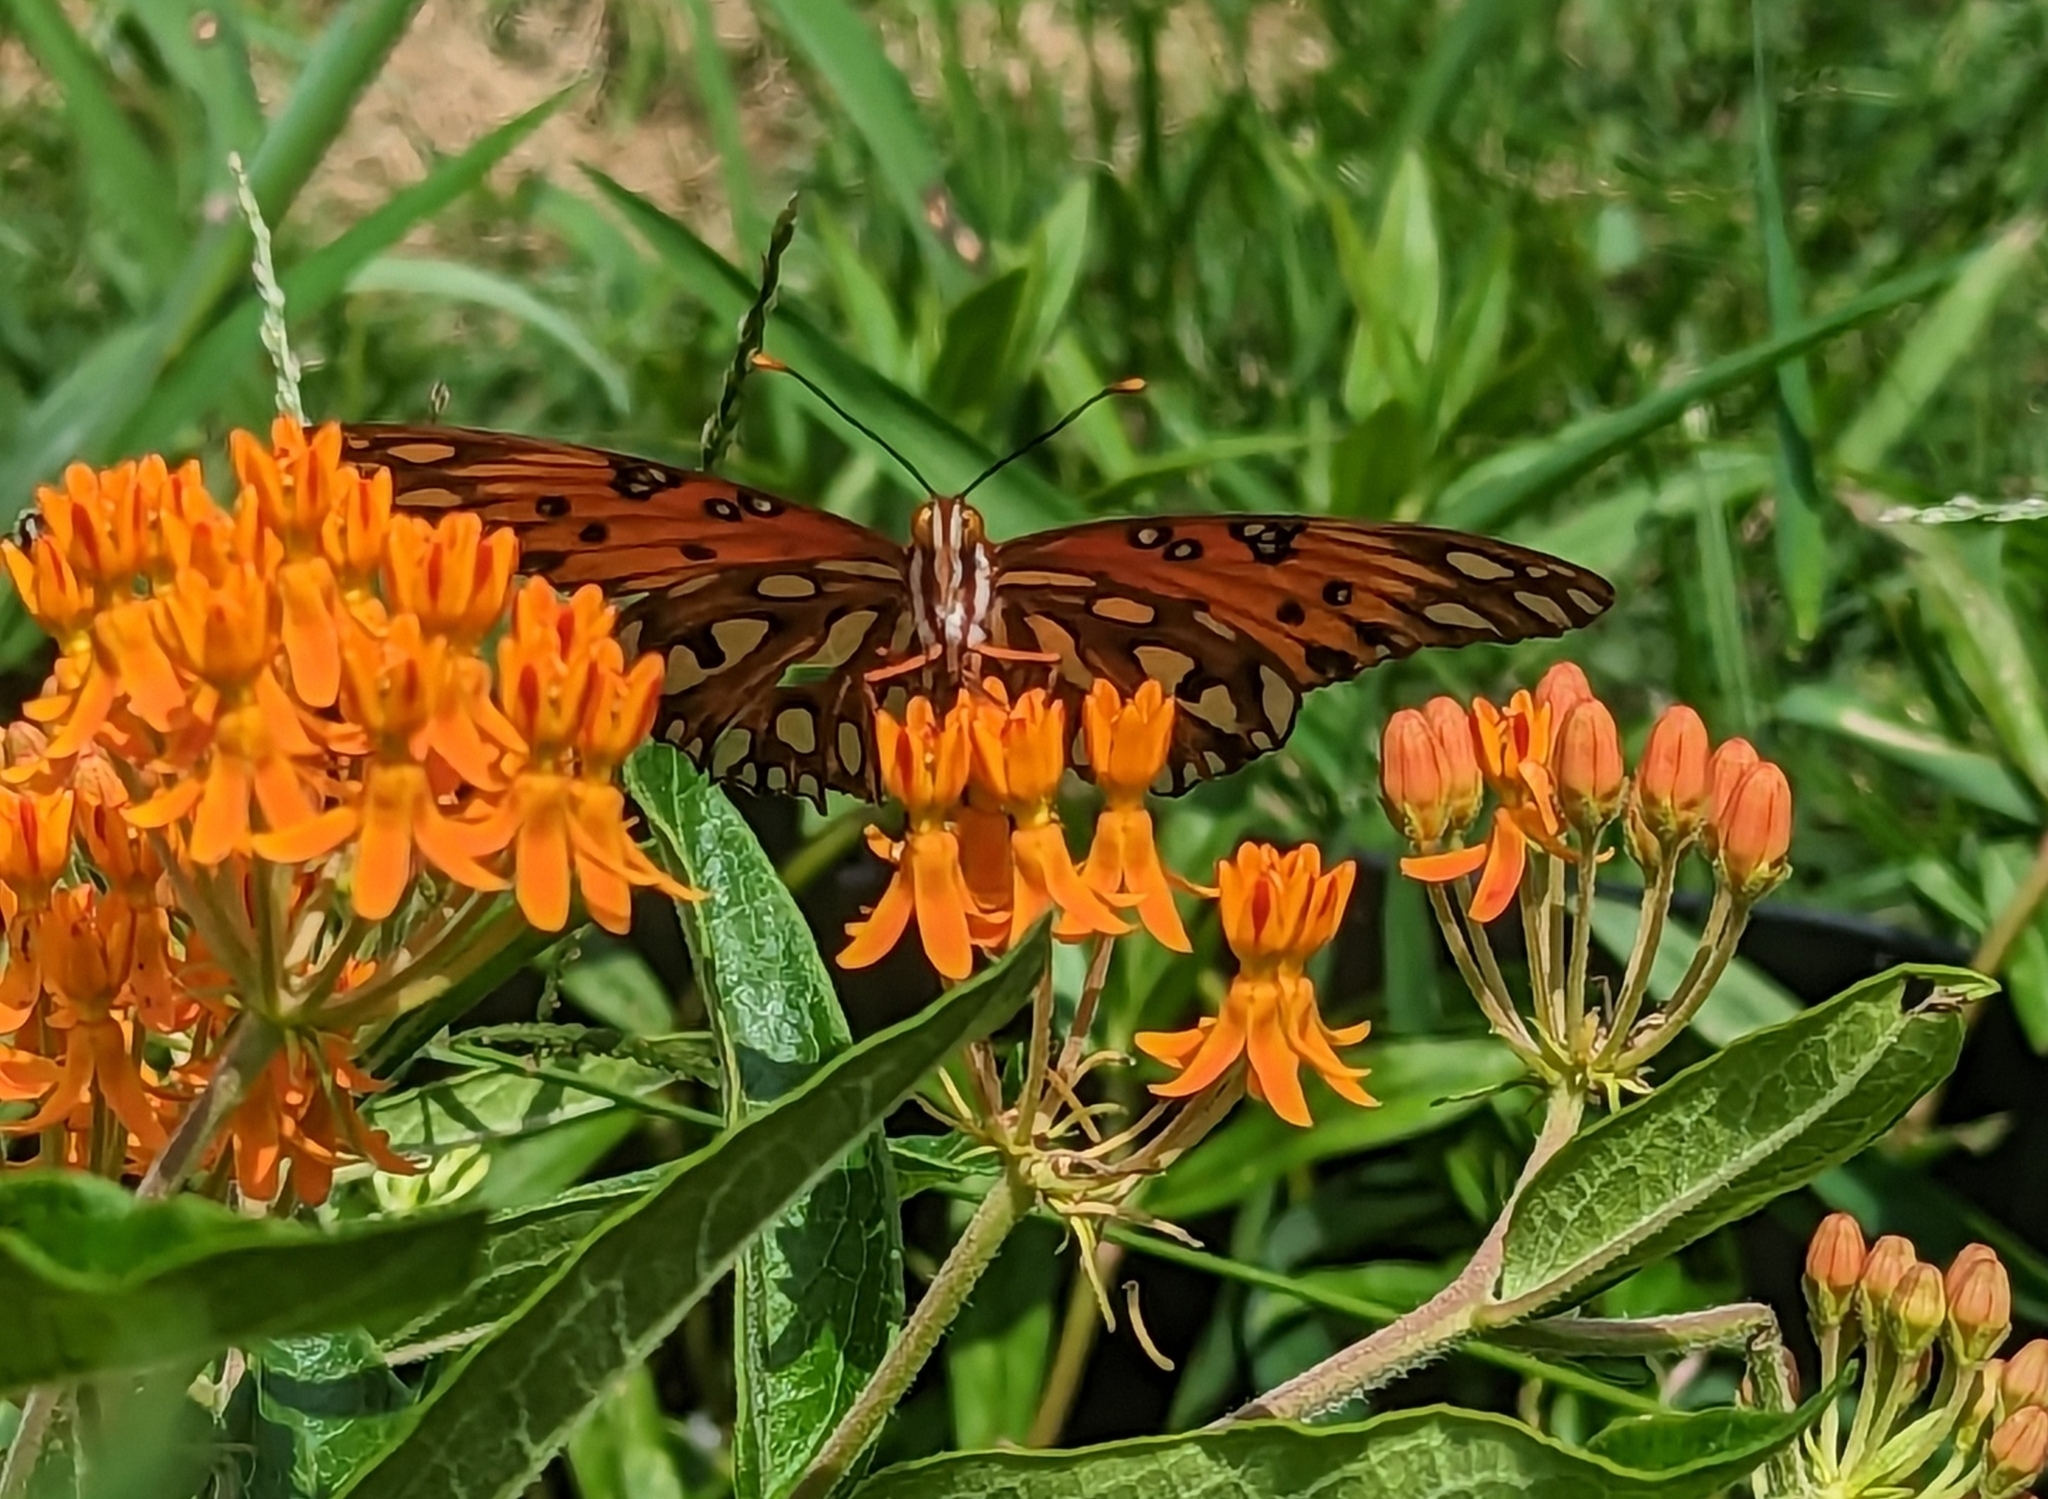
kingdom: Animalia
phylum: Arthropoda
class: Insecta
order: Lepidoptera
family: Nymphalidae
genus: Dione
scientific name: Dione vanillae
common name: Gulf fritillary
